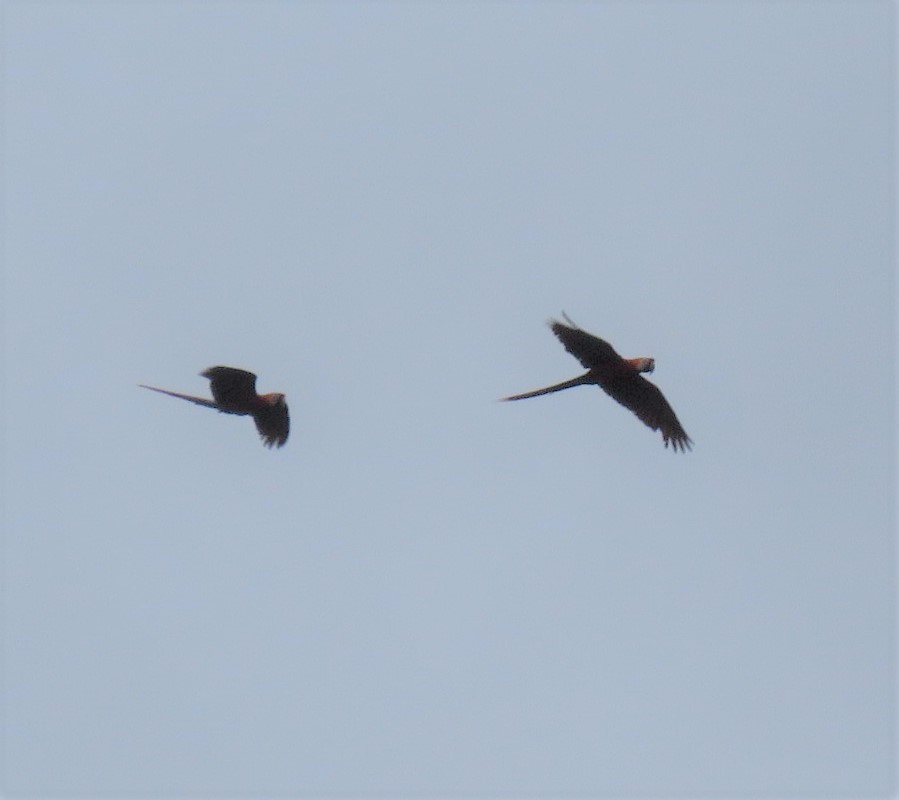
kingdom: Animalia
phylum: Chordata
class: Aves
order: Psittaciformes
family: Psittacidae
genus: Ara
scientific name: Ara
